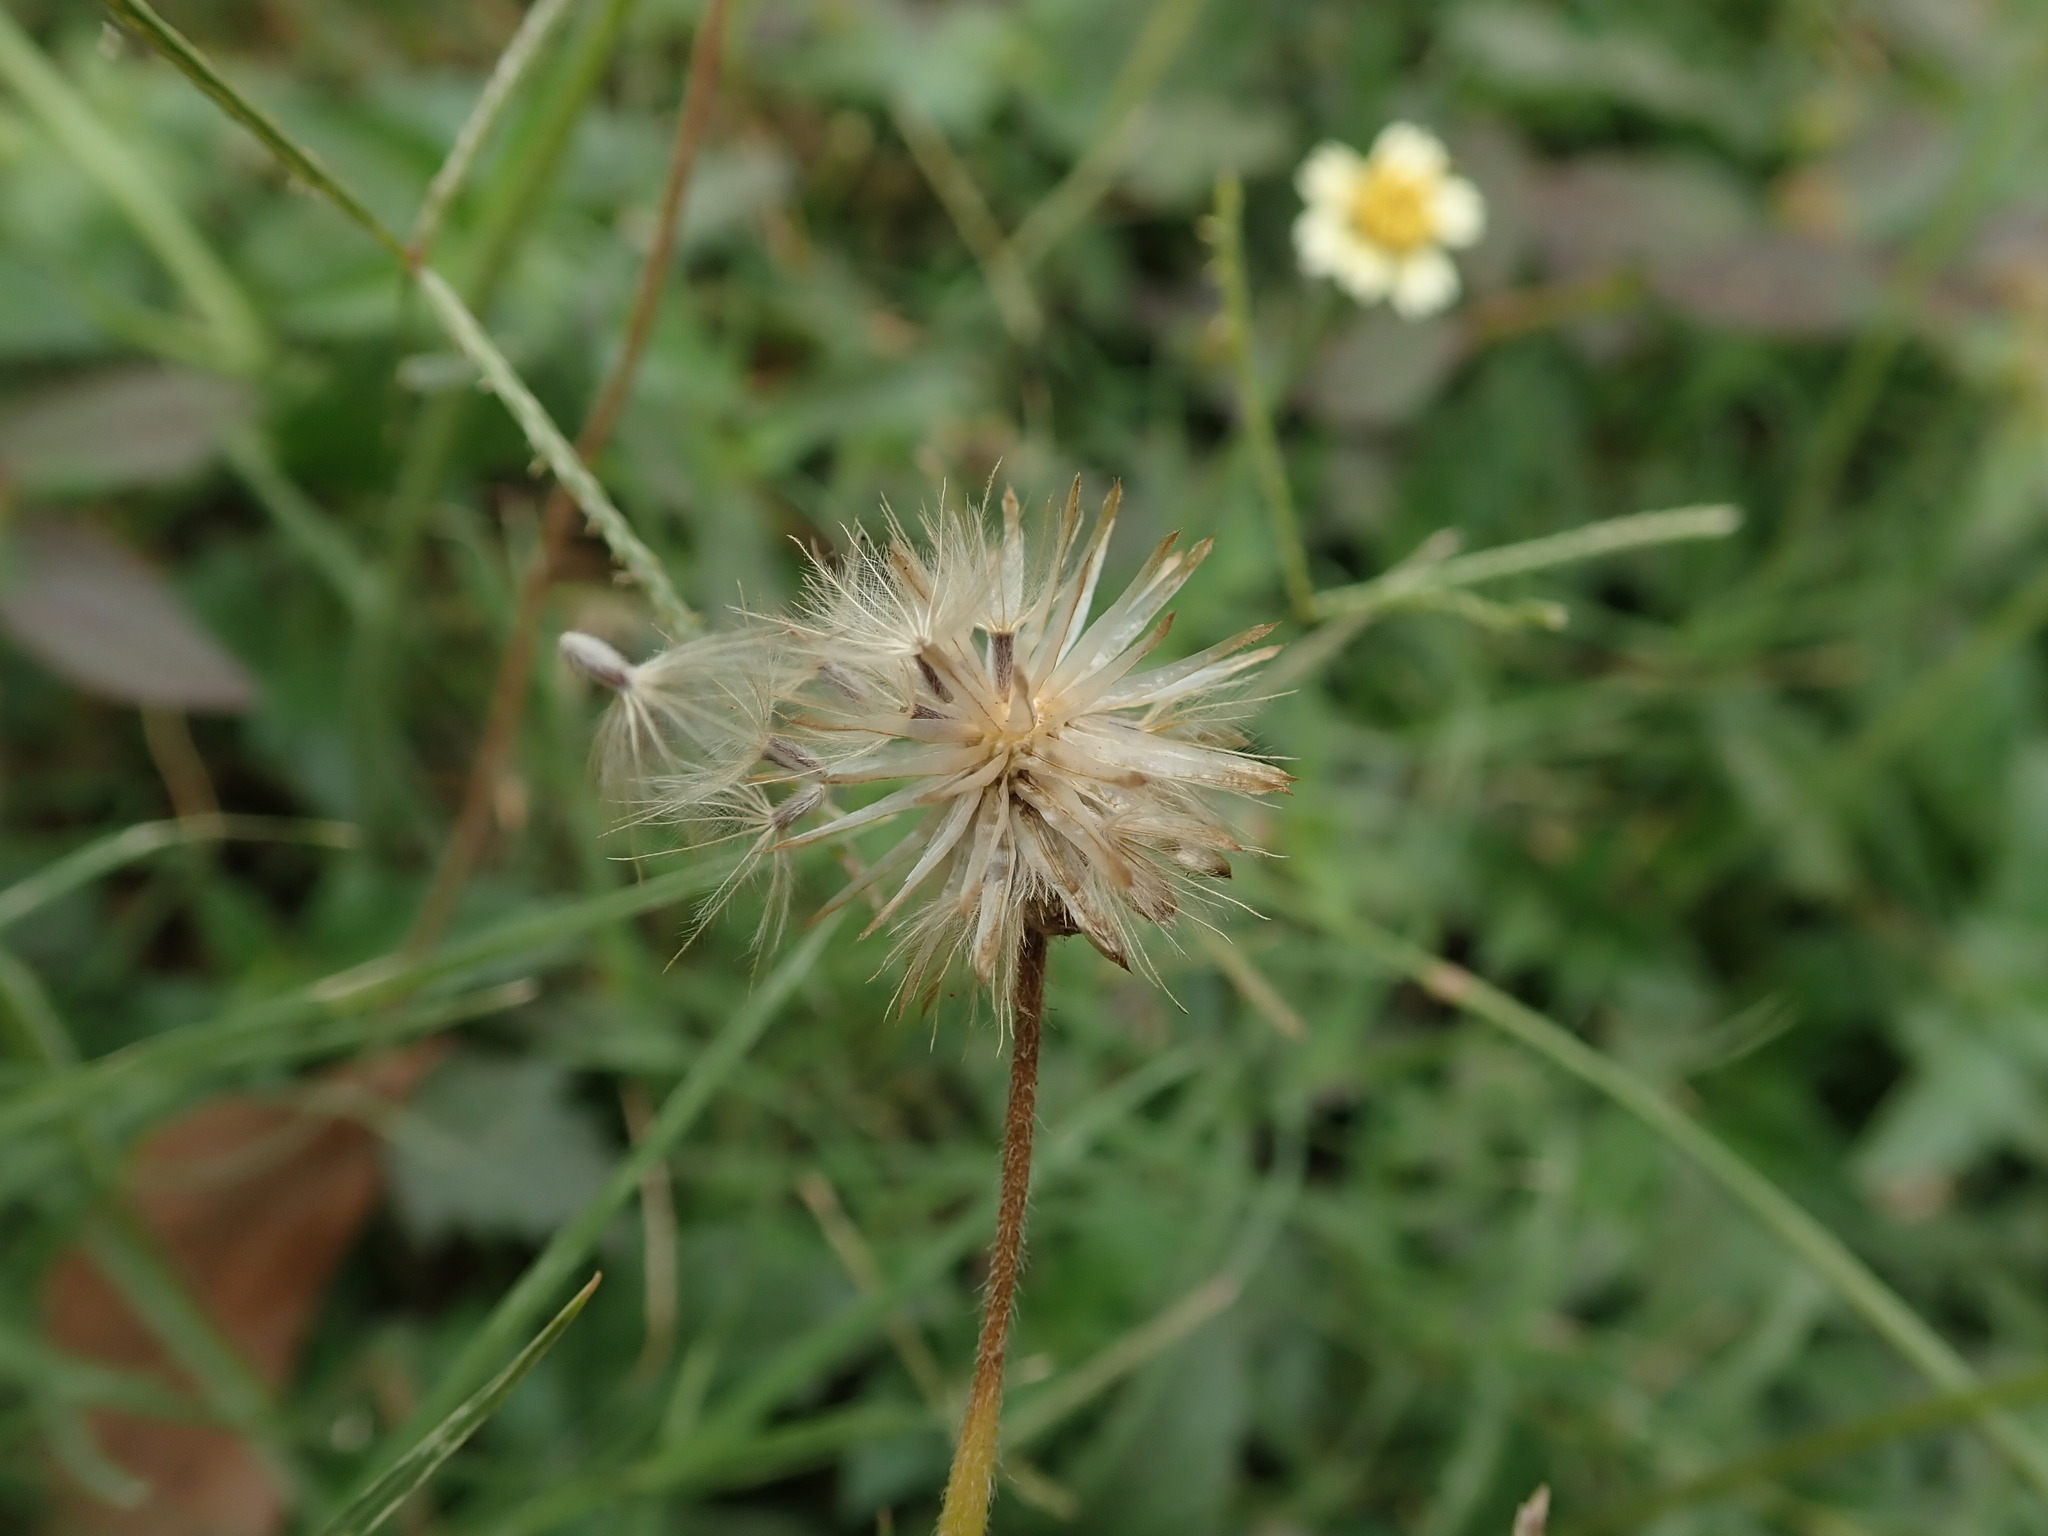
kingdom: Plantae
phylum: Tracheophyta
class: Magnoliopsida
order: Asterales
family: Asteraceae
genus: Tridax
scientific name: Tridax procumbens
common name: Coatbuttons
